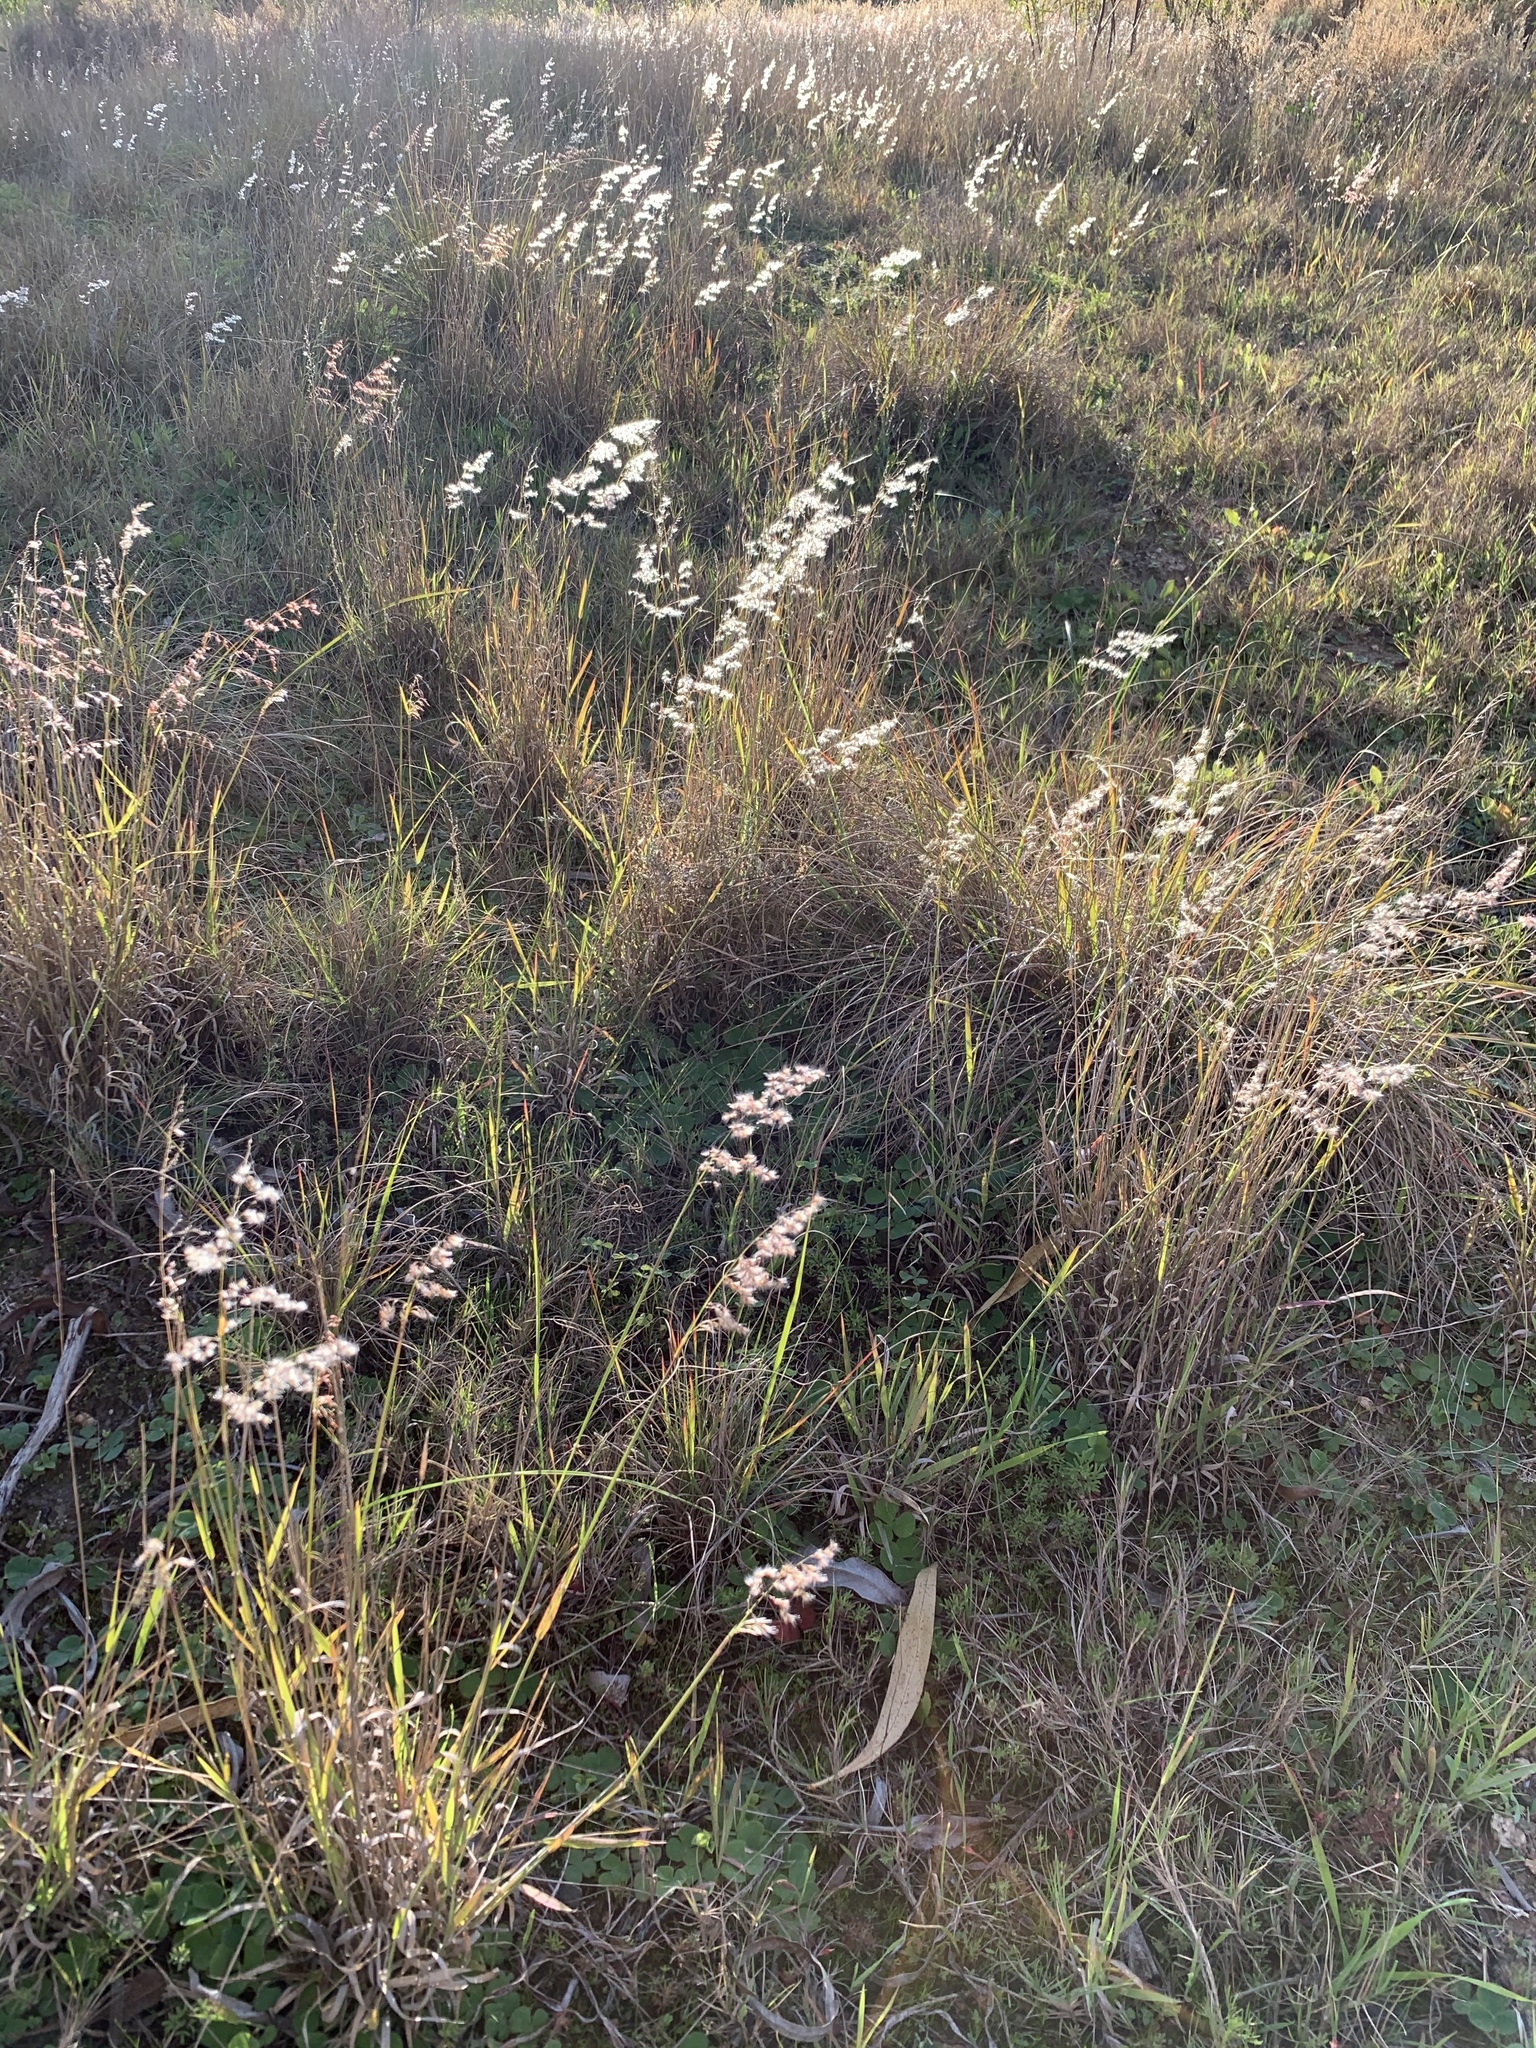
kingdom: Plantae
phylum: Tracheophyta
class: Liliopsida
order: Poales
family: Poaceae
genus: Melinis
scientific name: Melinis repens
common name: Rose natal grass
